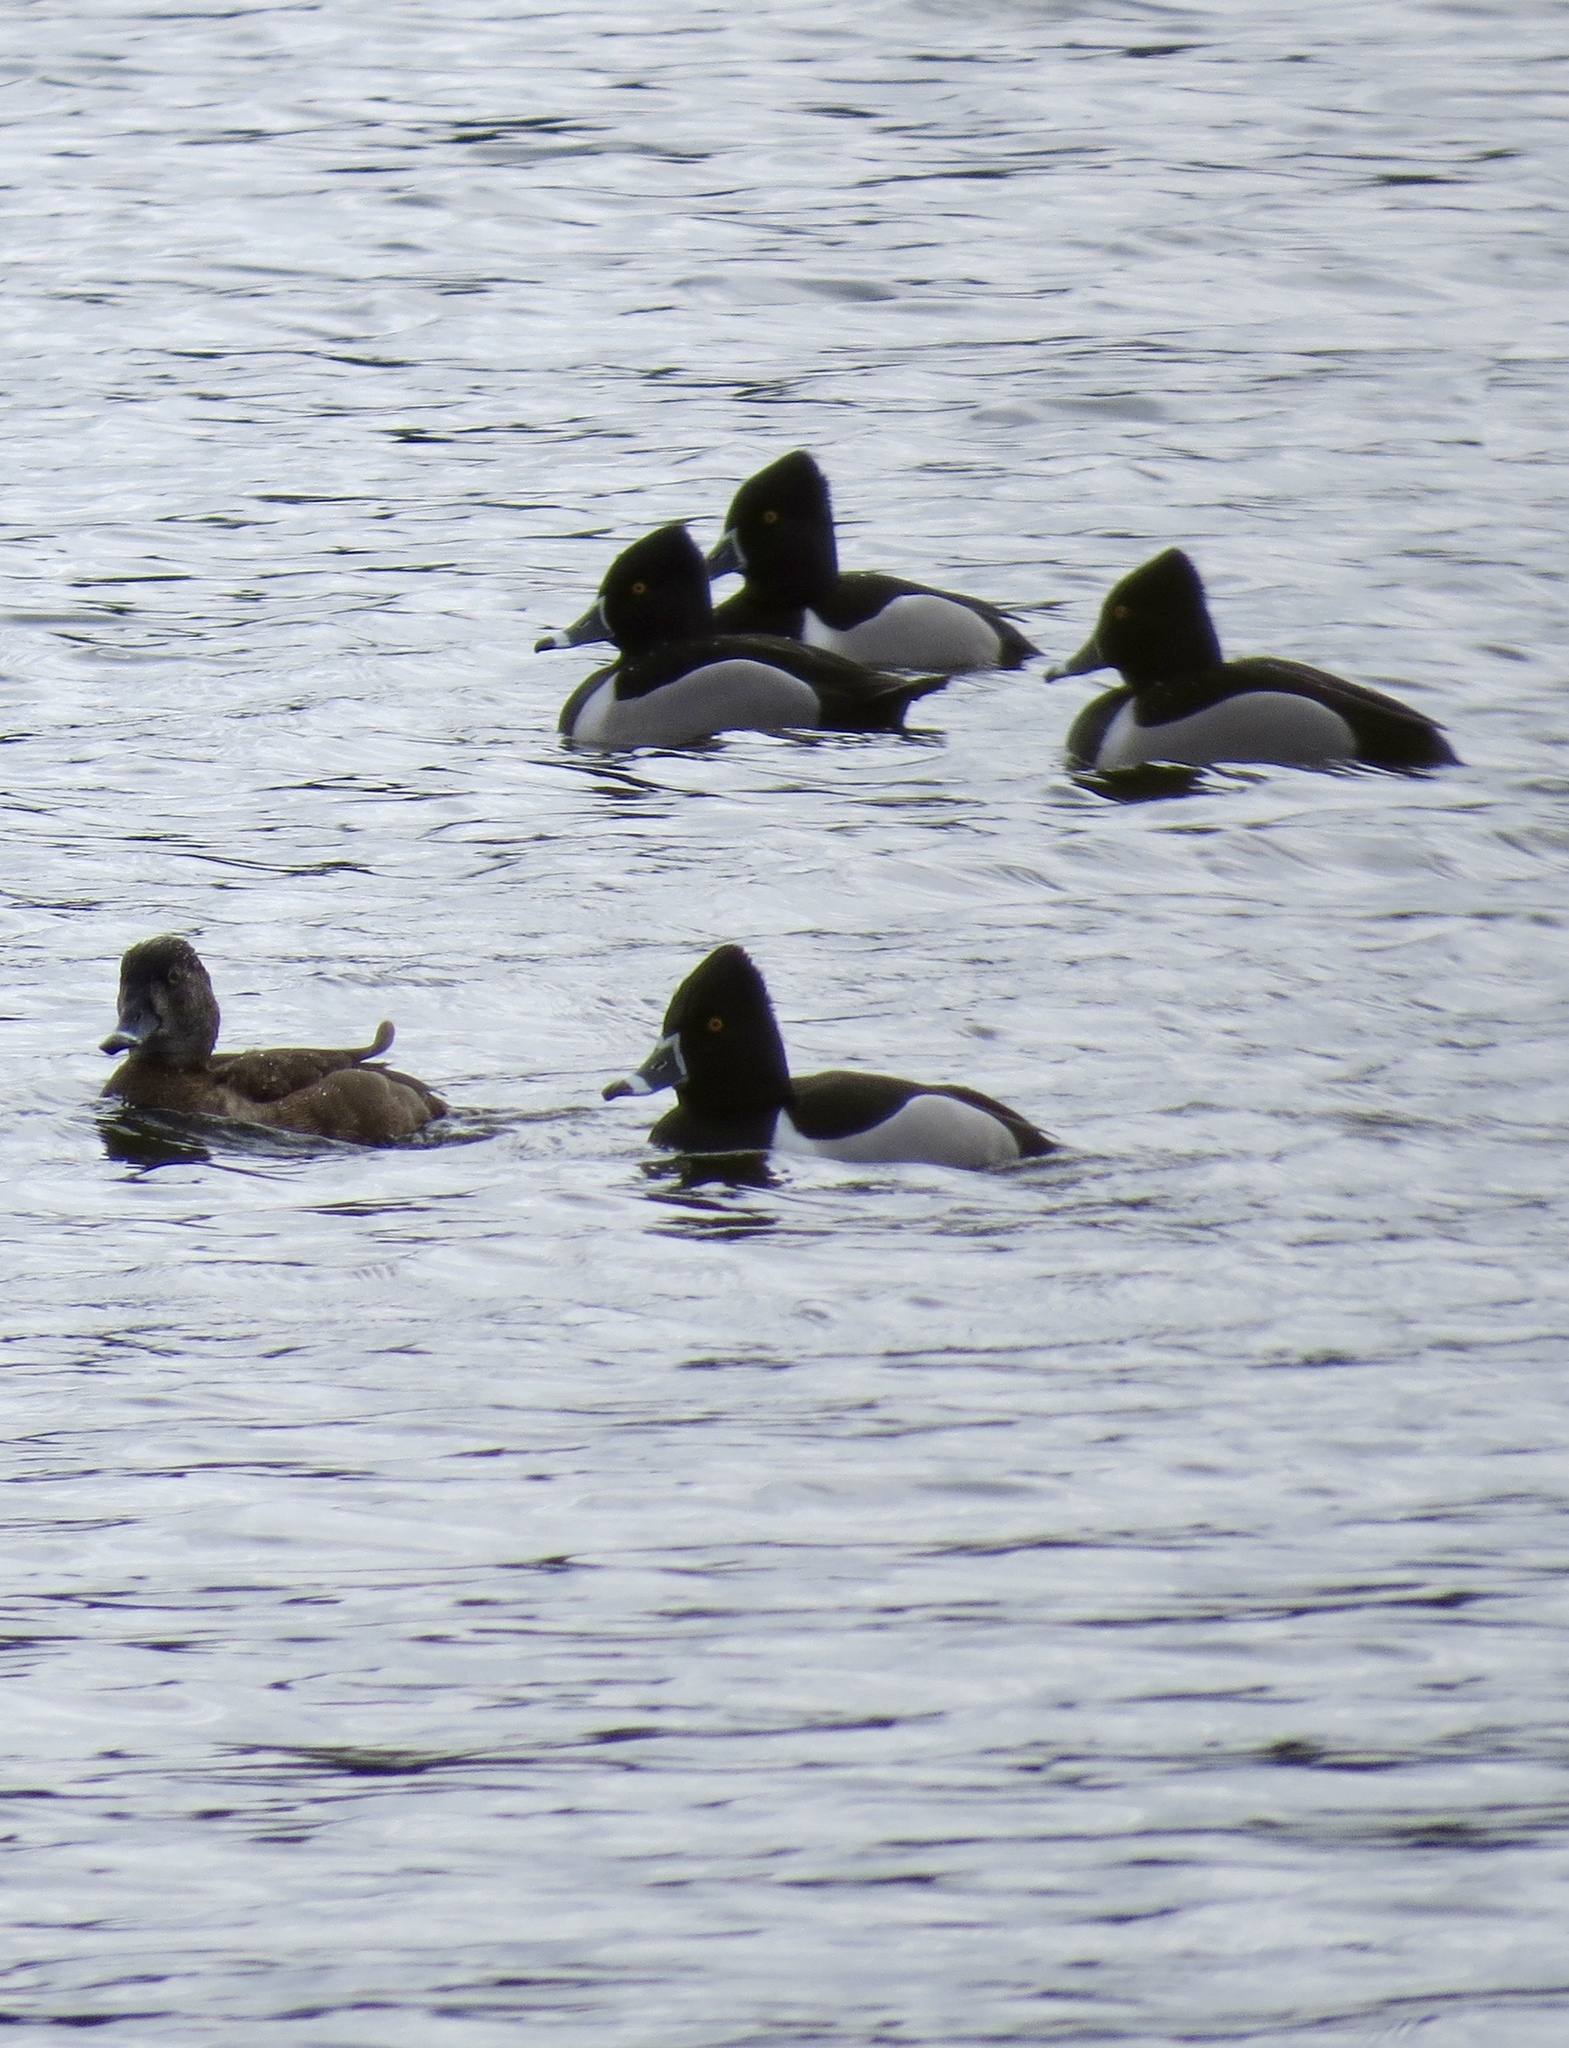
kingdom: Animalia
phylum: Chordata
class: Aves
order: Anseriformes
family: Anatidae
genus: Aythya
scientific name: Aythya collaris
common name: Ring-necked duck
